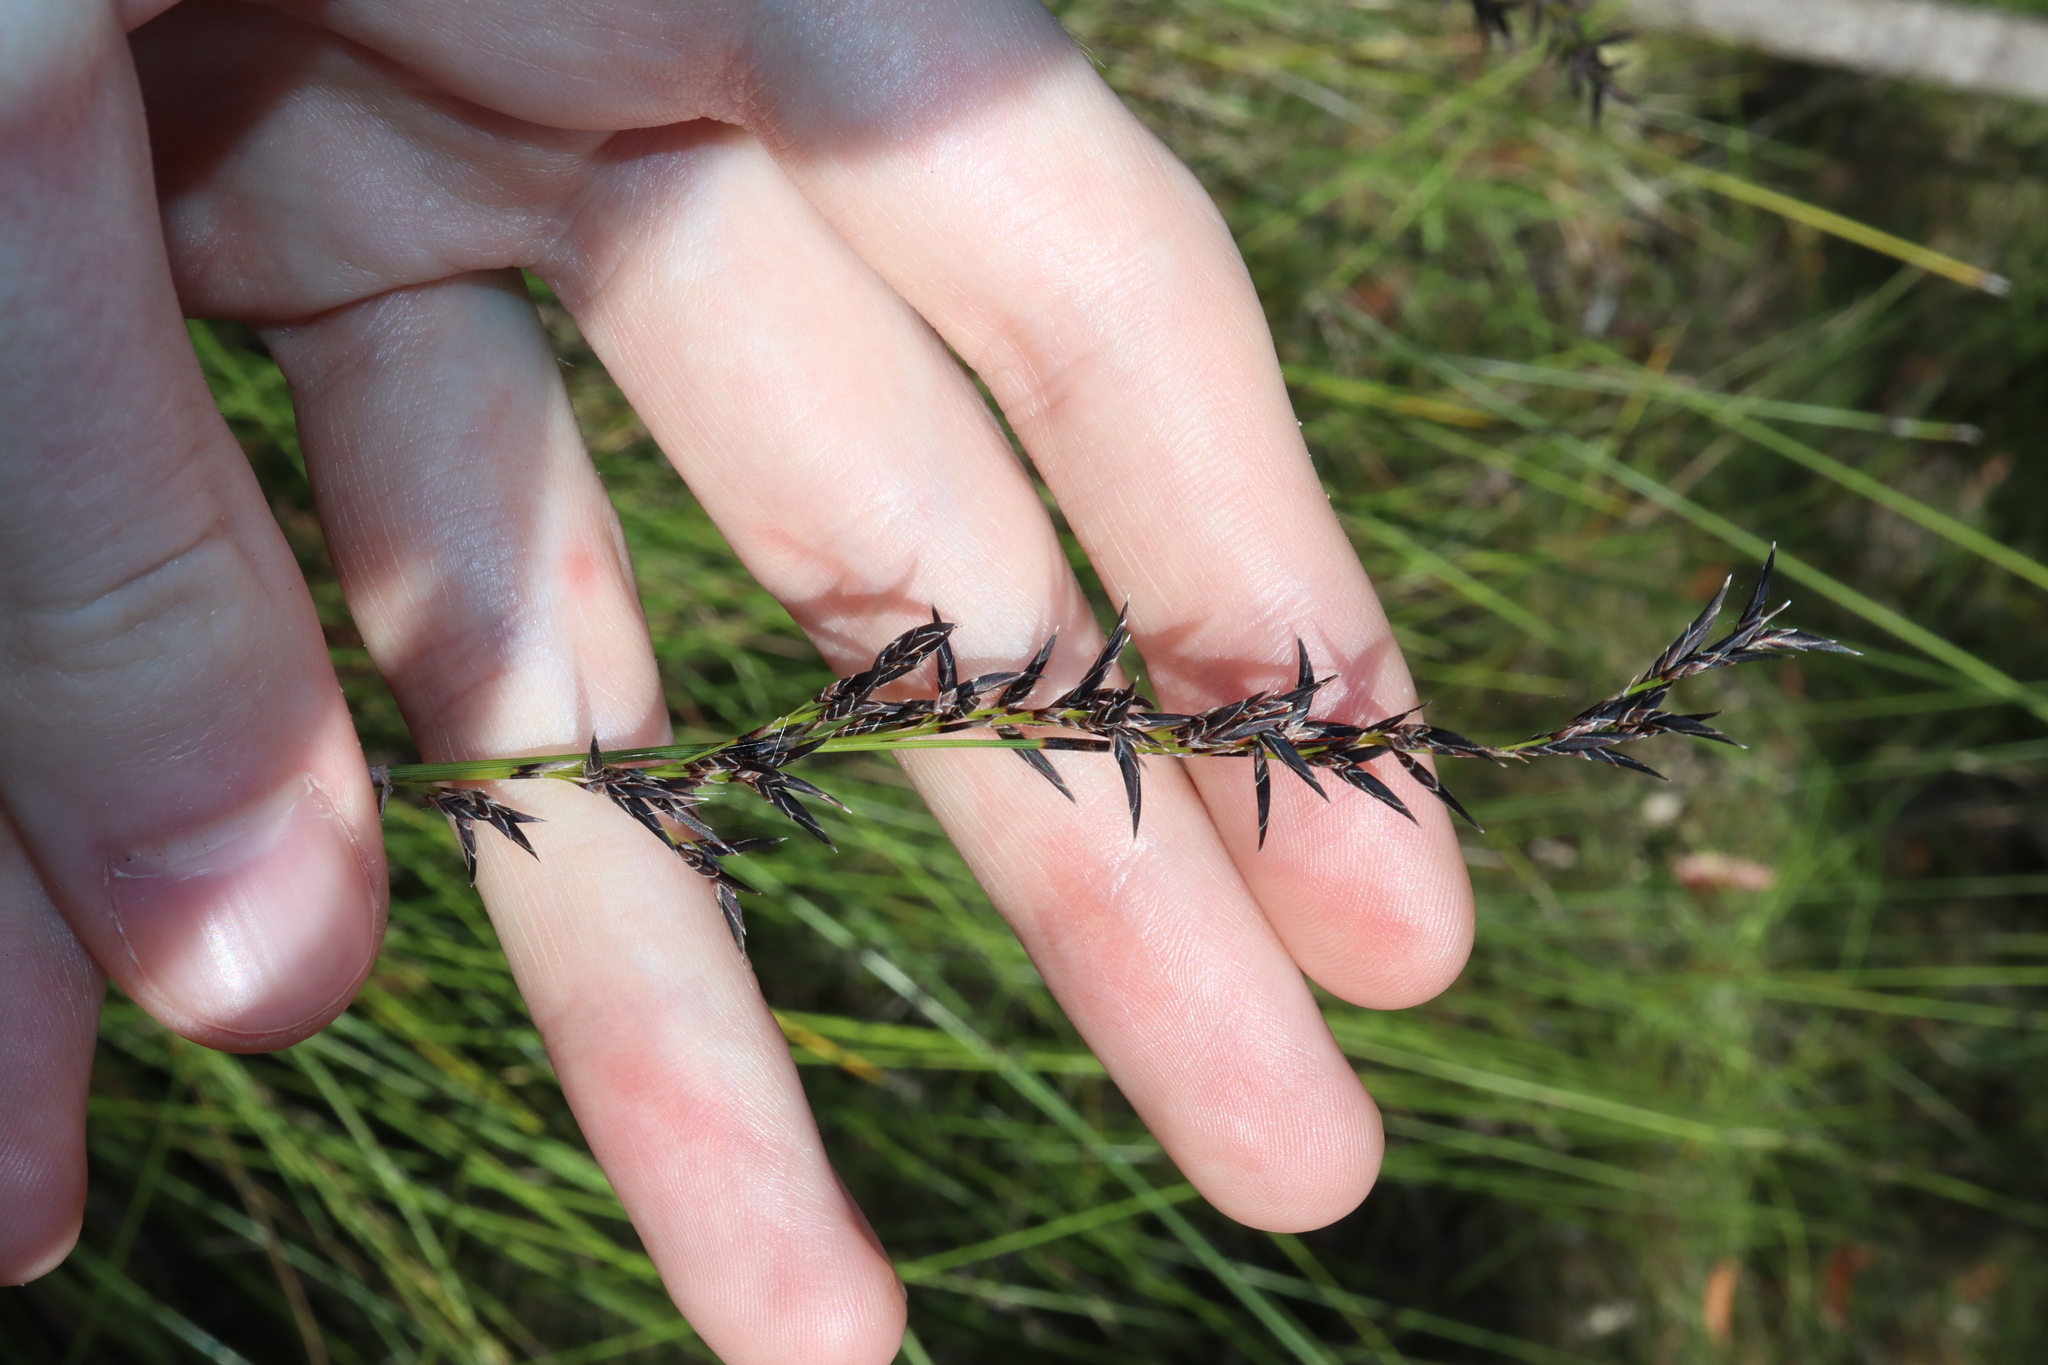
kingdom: Plantae
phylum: Tracheophyta
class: Liliopsida
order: Poales
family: Cyperaceae
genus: Schoenus
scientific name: Schoenus melanostachys
